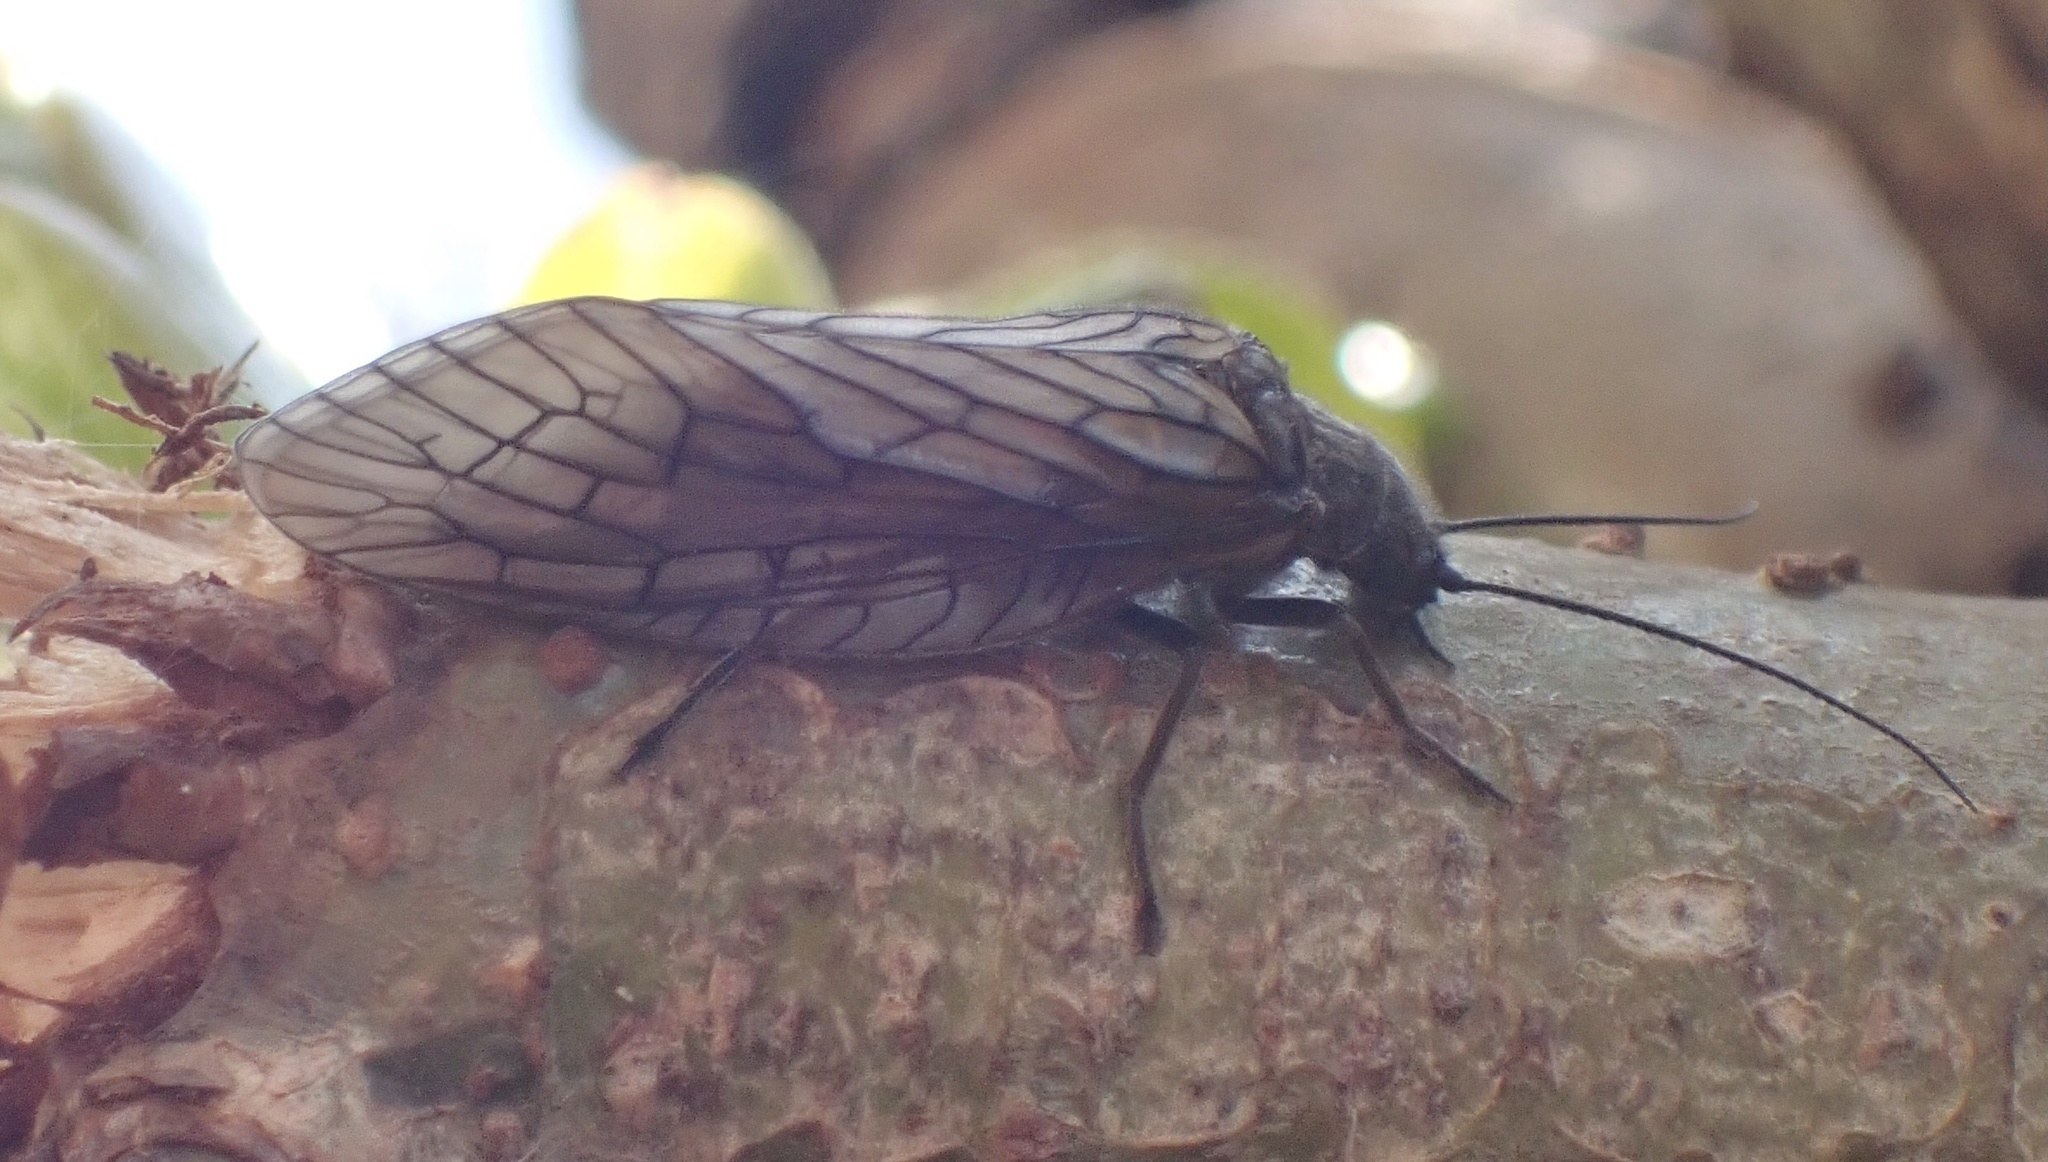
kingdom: Animalia
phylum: Arthropoda
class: Insecta
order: Megaloptera
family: Sialidae
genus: Sialis
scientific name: Sialis
